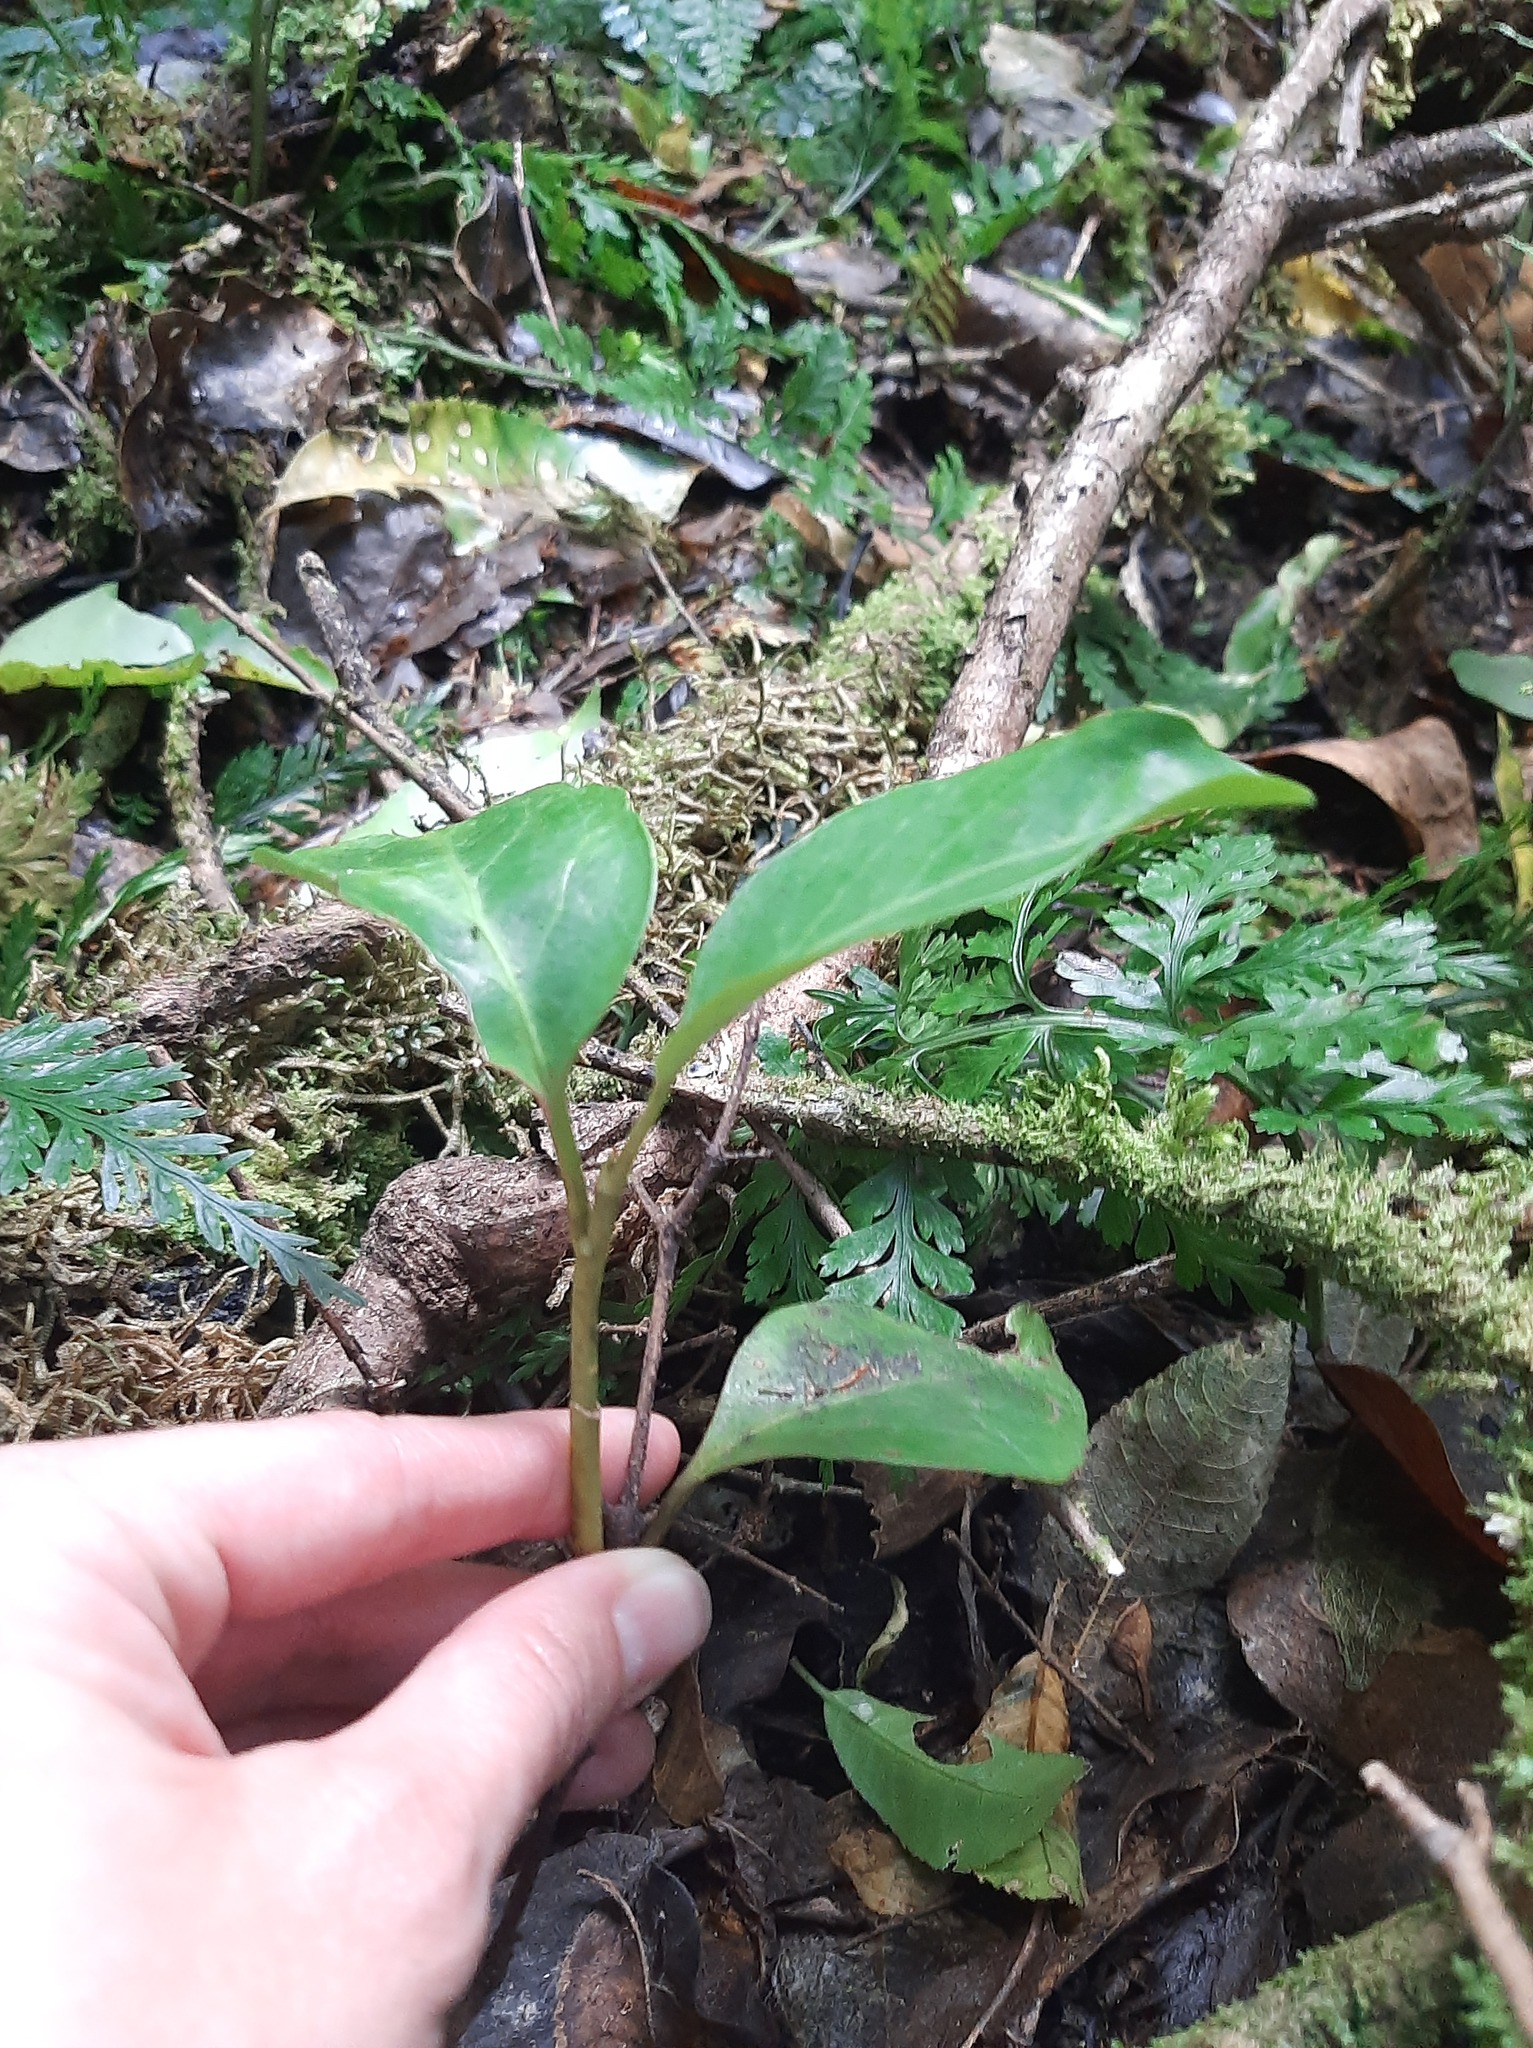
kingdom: Plantae
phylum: Tracheophyta
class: Magnoliopsida
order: Apiales
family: Griseliniaceae
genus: Griselinia
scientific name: Griselinia littoralis
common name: New zealand broadleaf
